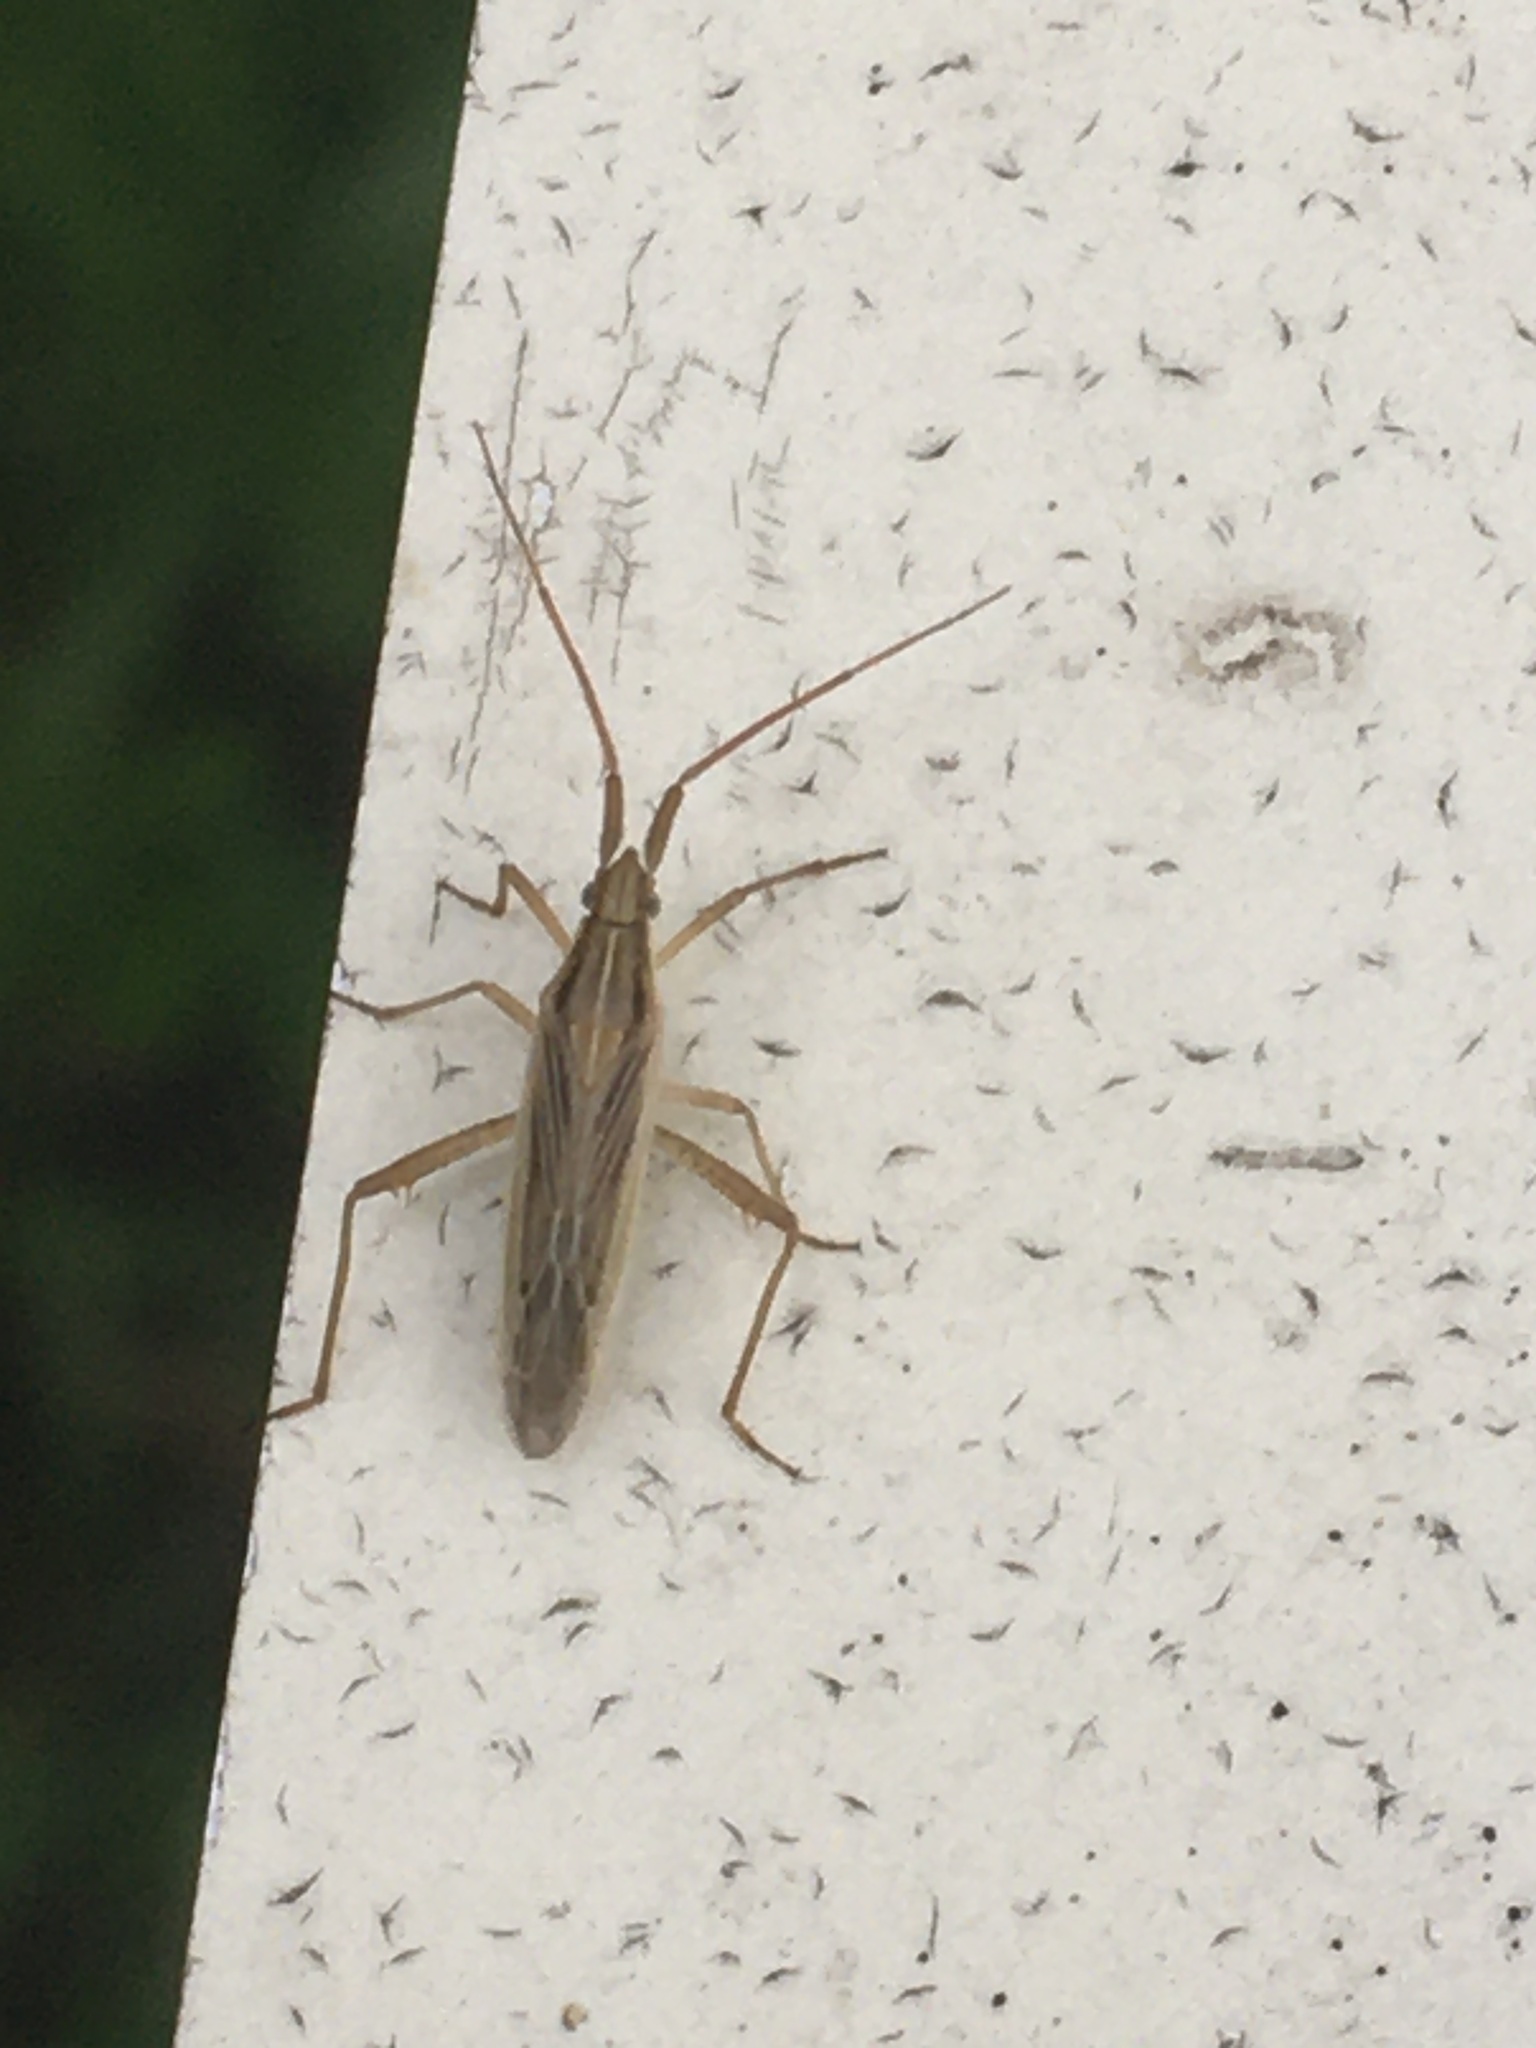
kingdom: Animalia
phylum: Arthropoda
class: Insecta
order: Hemiptera
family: Miridae
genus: Stenodema
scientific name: Stenodema calcarata
